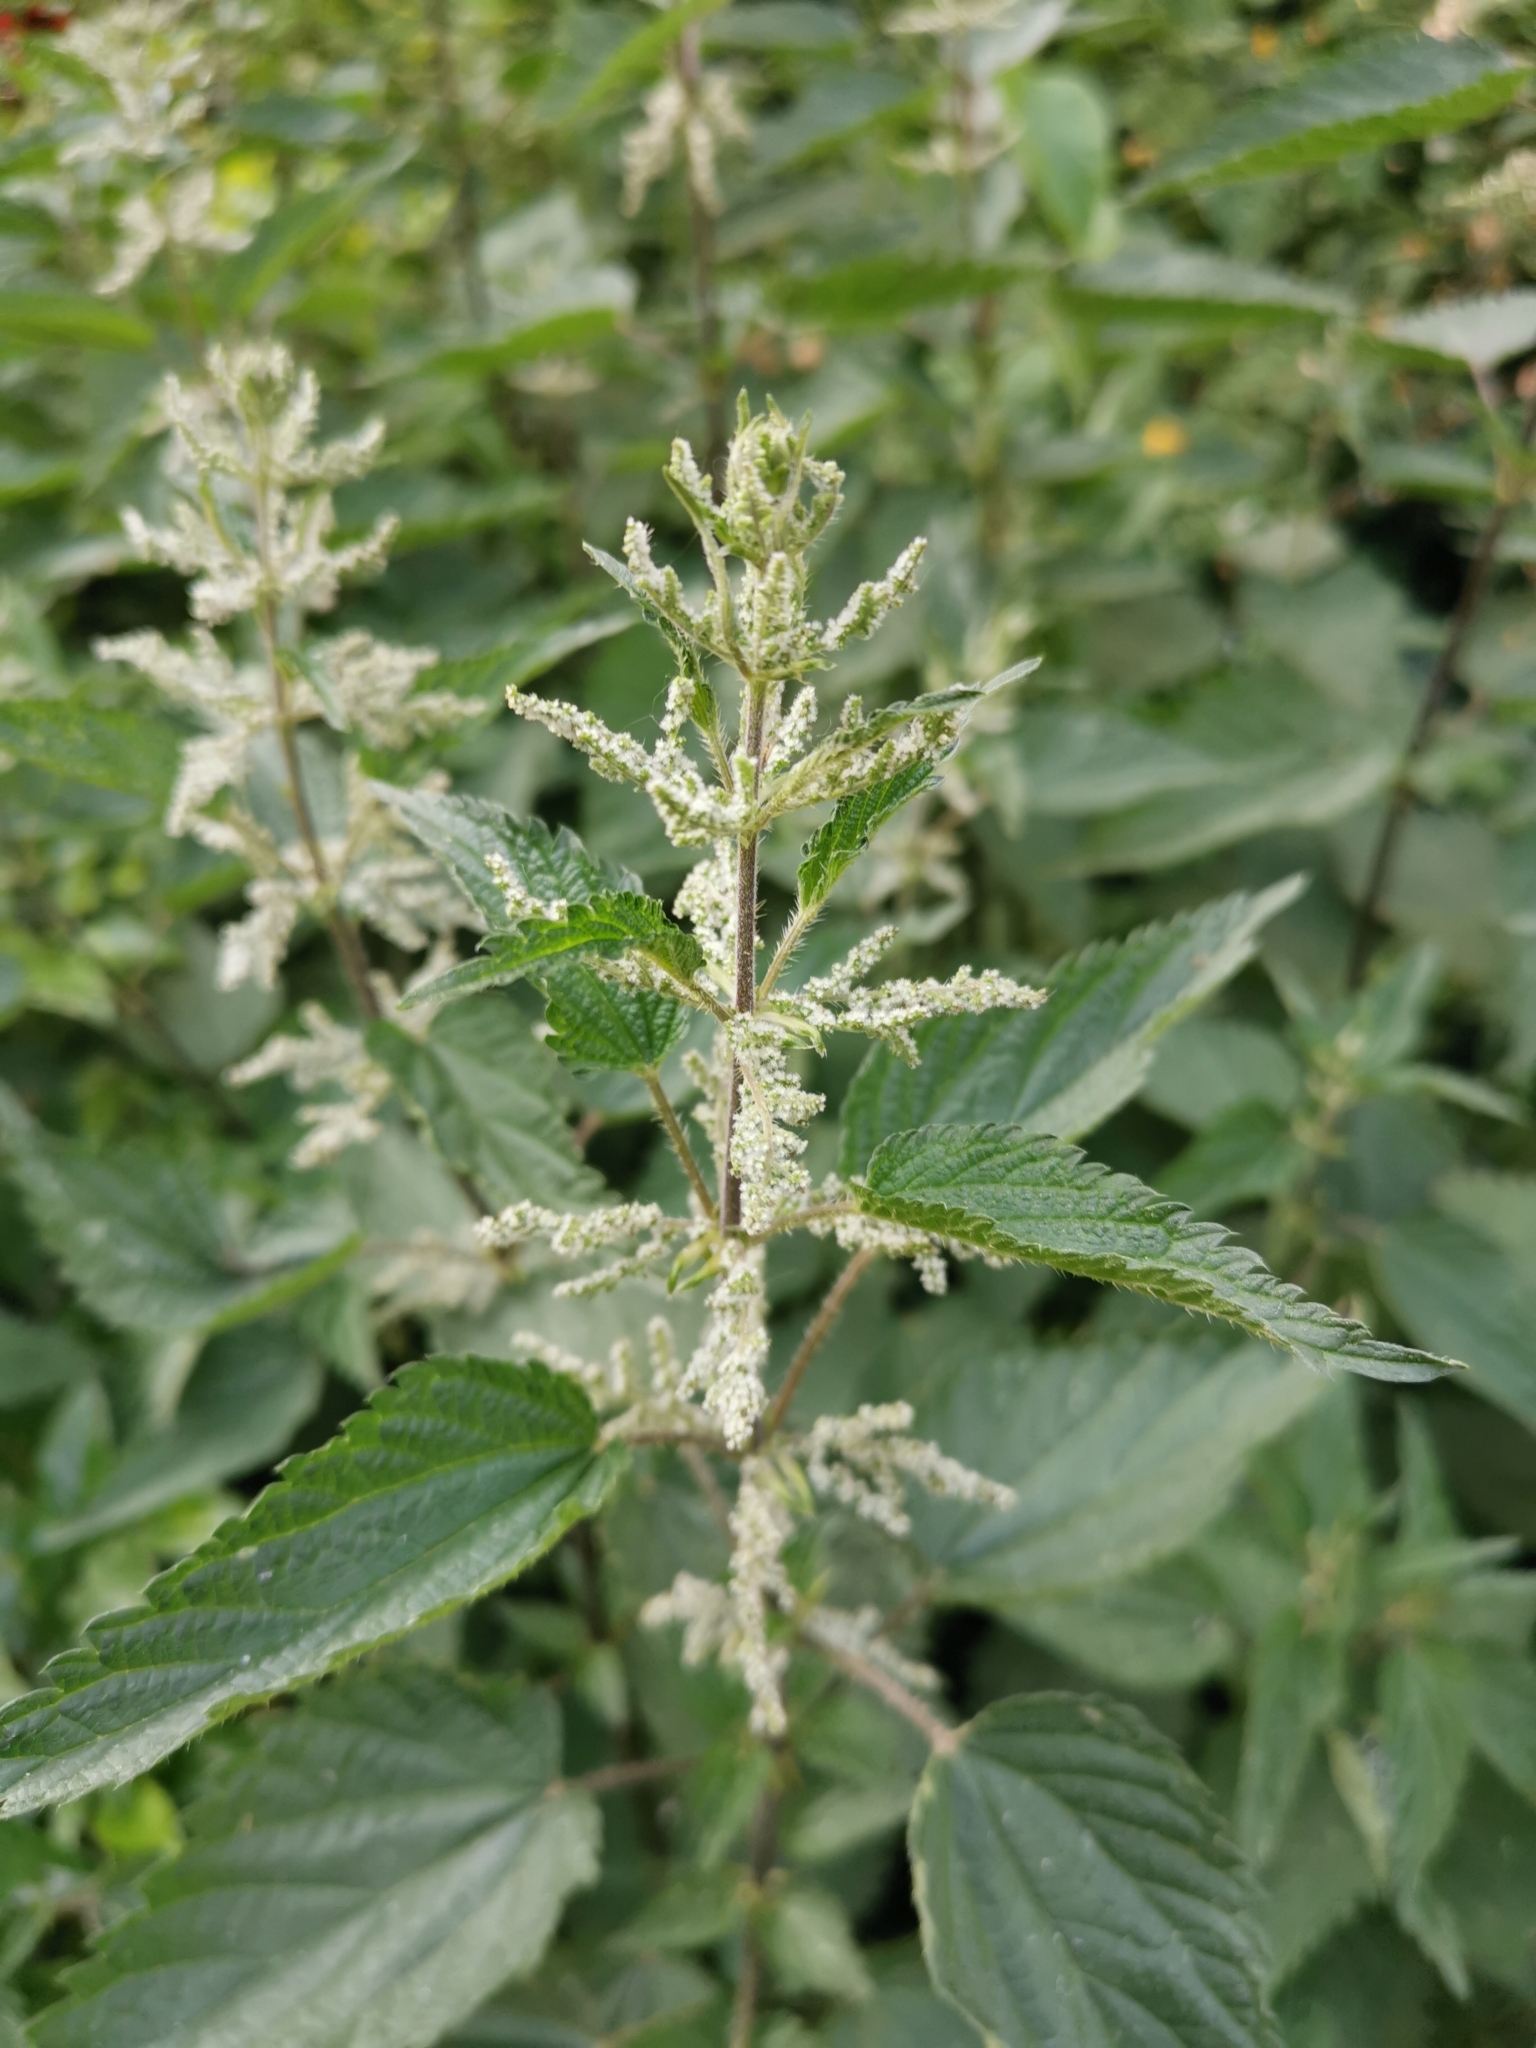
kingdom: Plantae
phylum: Tracheophyta
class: Magnoliopsida
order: Rosales
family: Urticaceae
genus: Urtica
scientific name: Urtica dioica
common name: Common nettle
